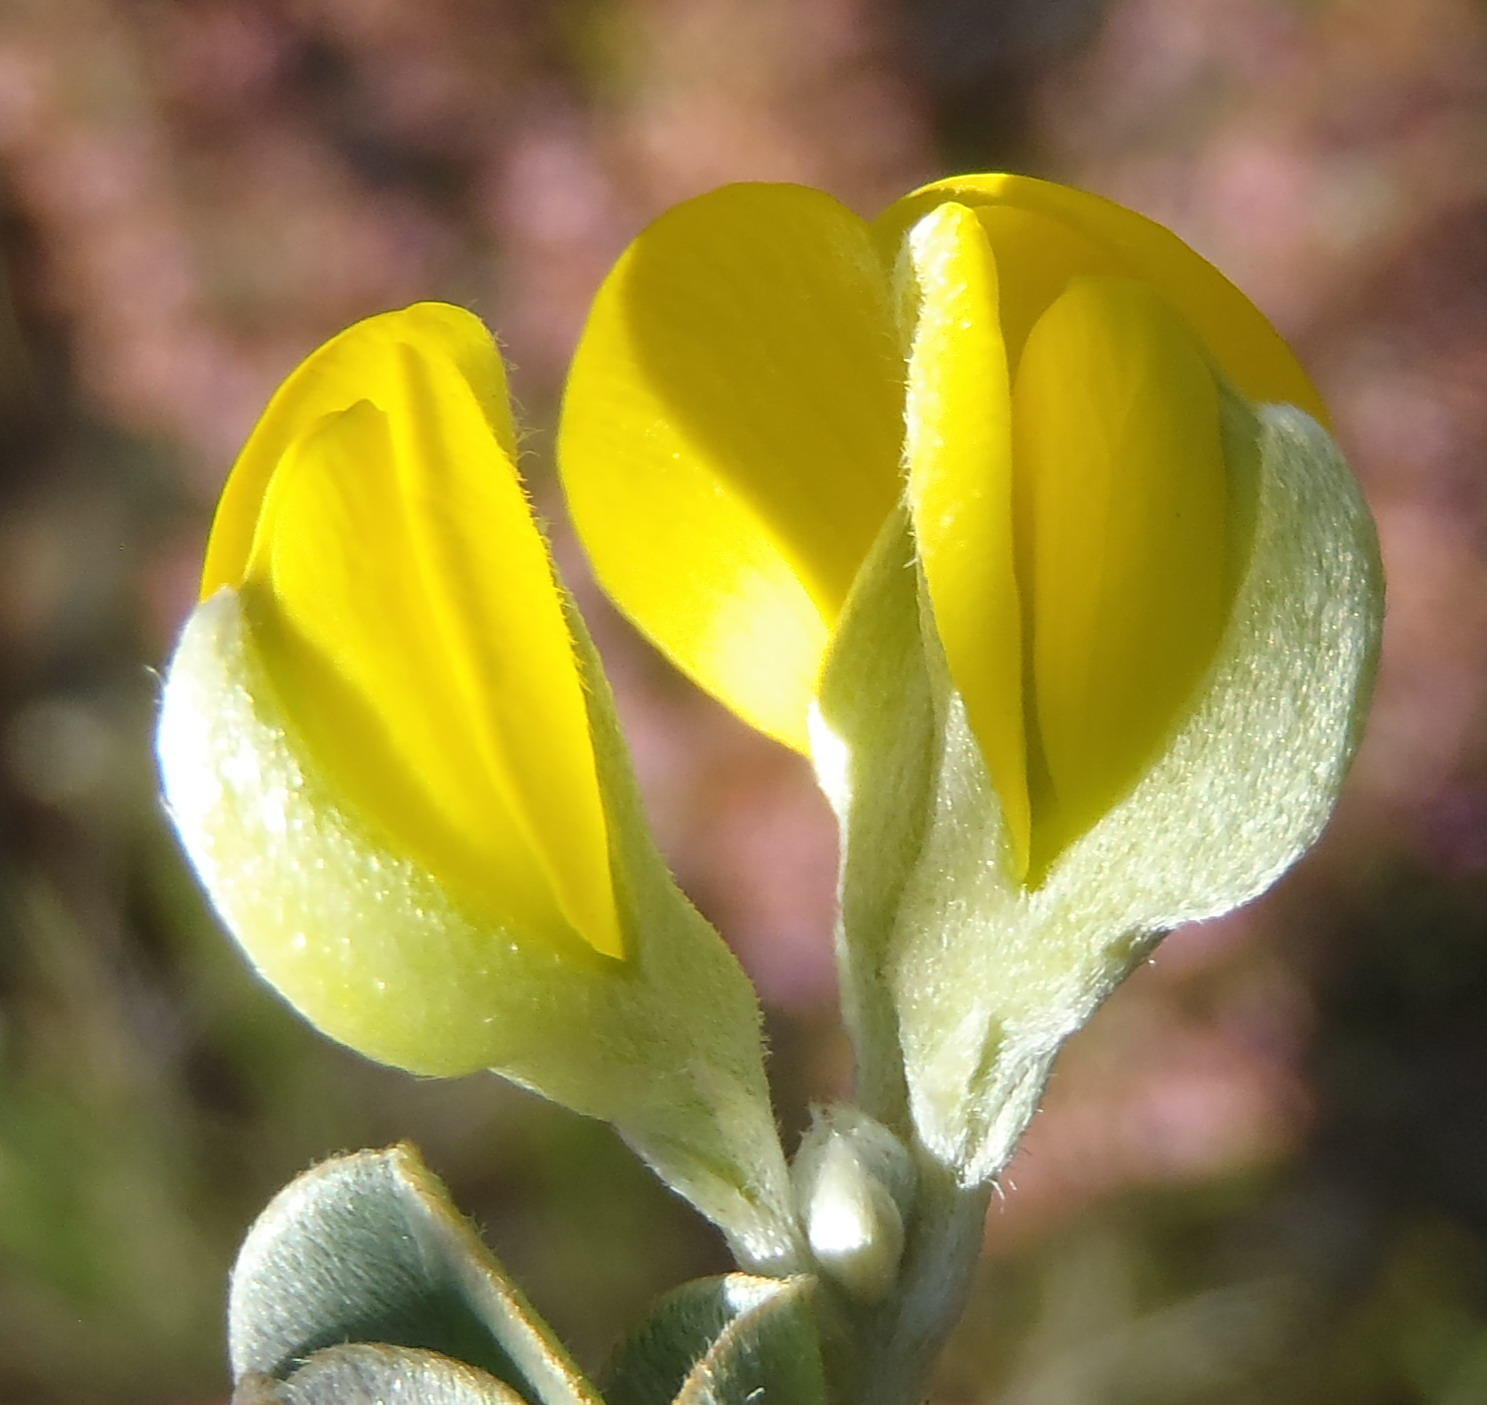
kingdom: Plantae
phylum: Tracheophyta
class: Magnoliopsida
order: Fabales
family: Fabaceae
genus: Argyrolobium
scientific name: Argyrolobium incanum
